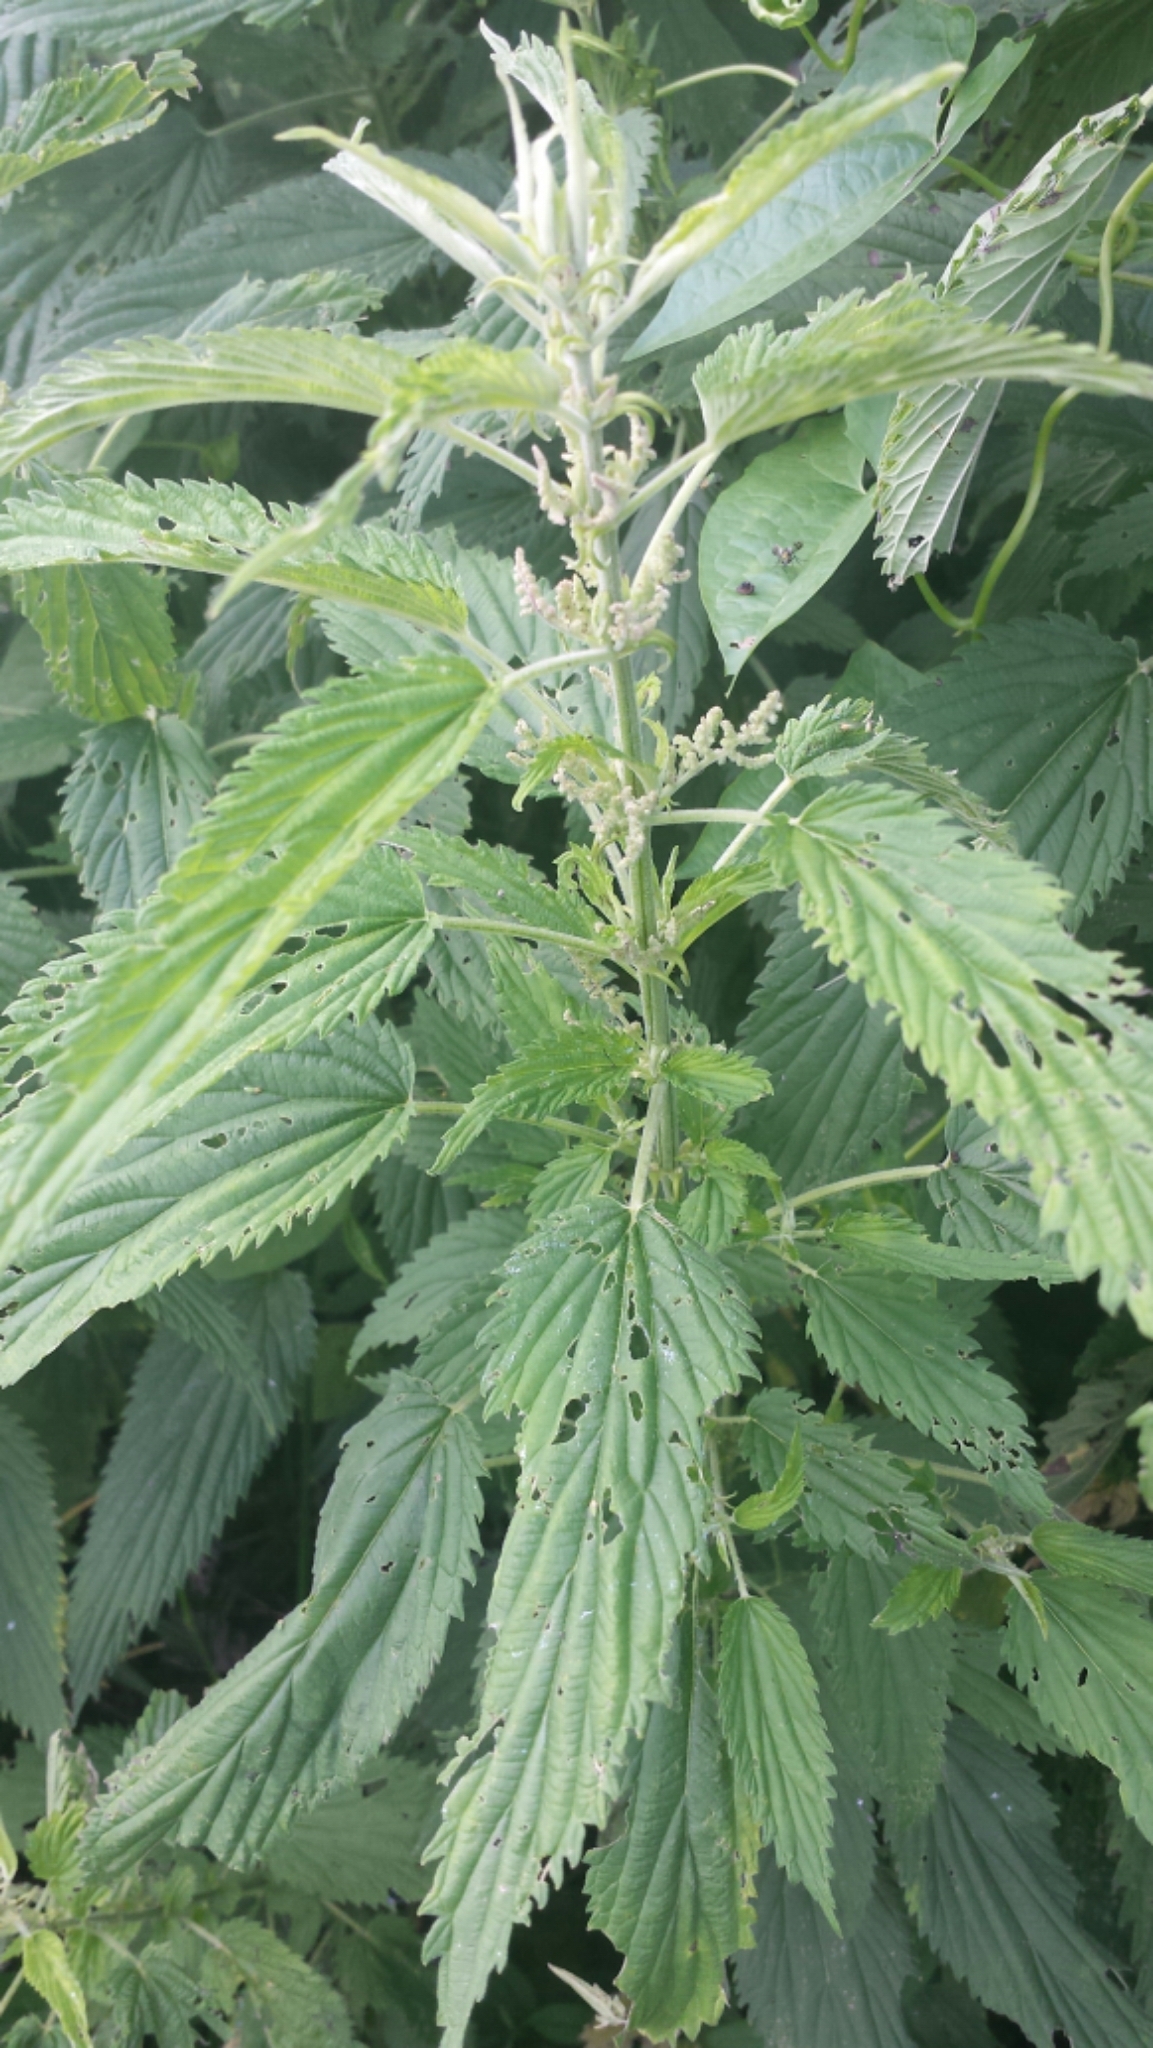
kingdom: Plantae
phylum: Tracheophyta
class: Magnoliopsida
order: Rosales
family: Urticaceae
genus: Urtica
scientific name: Urtica dioica
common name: Common nettle
